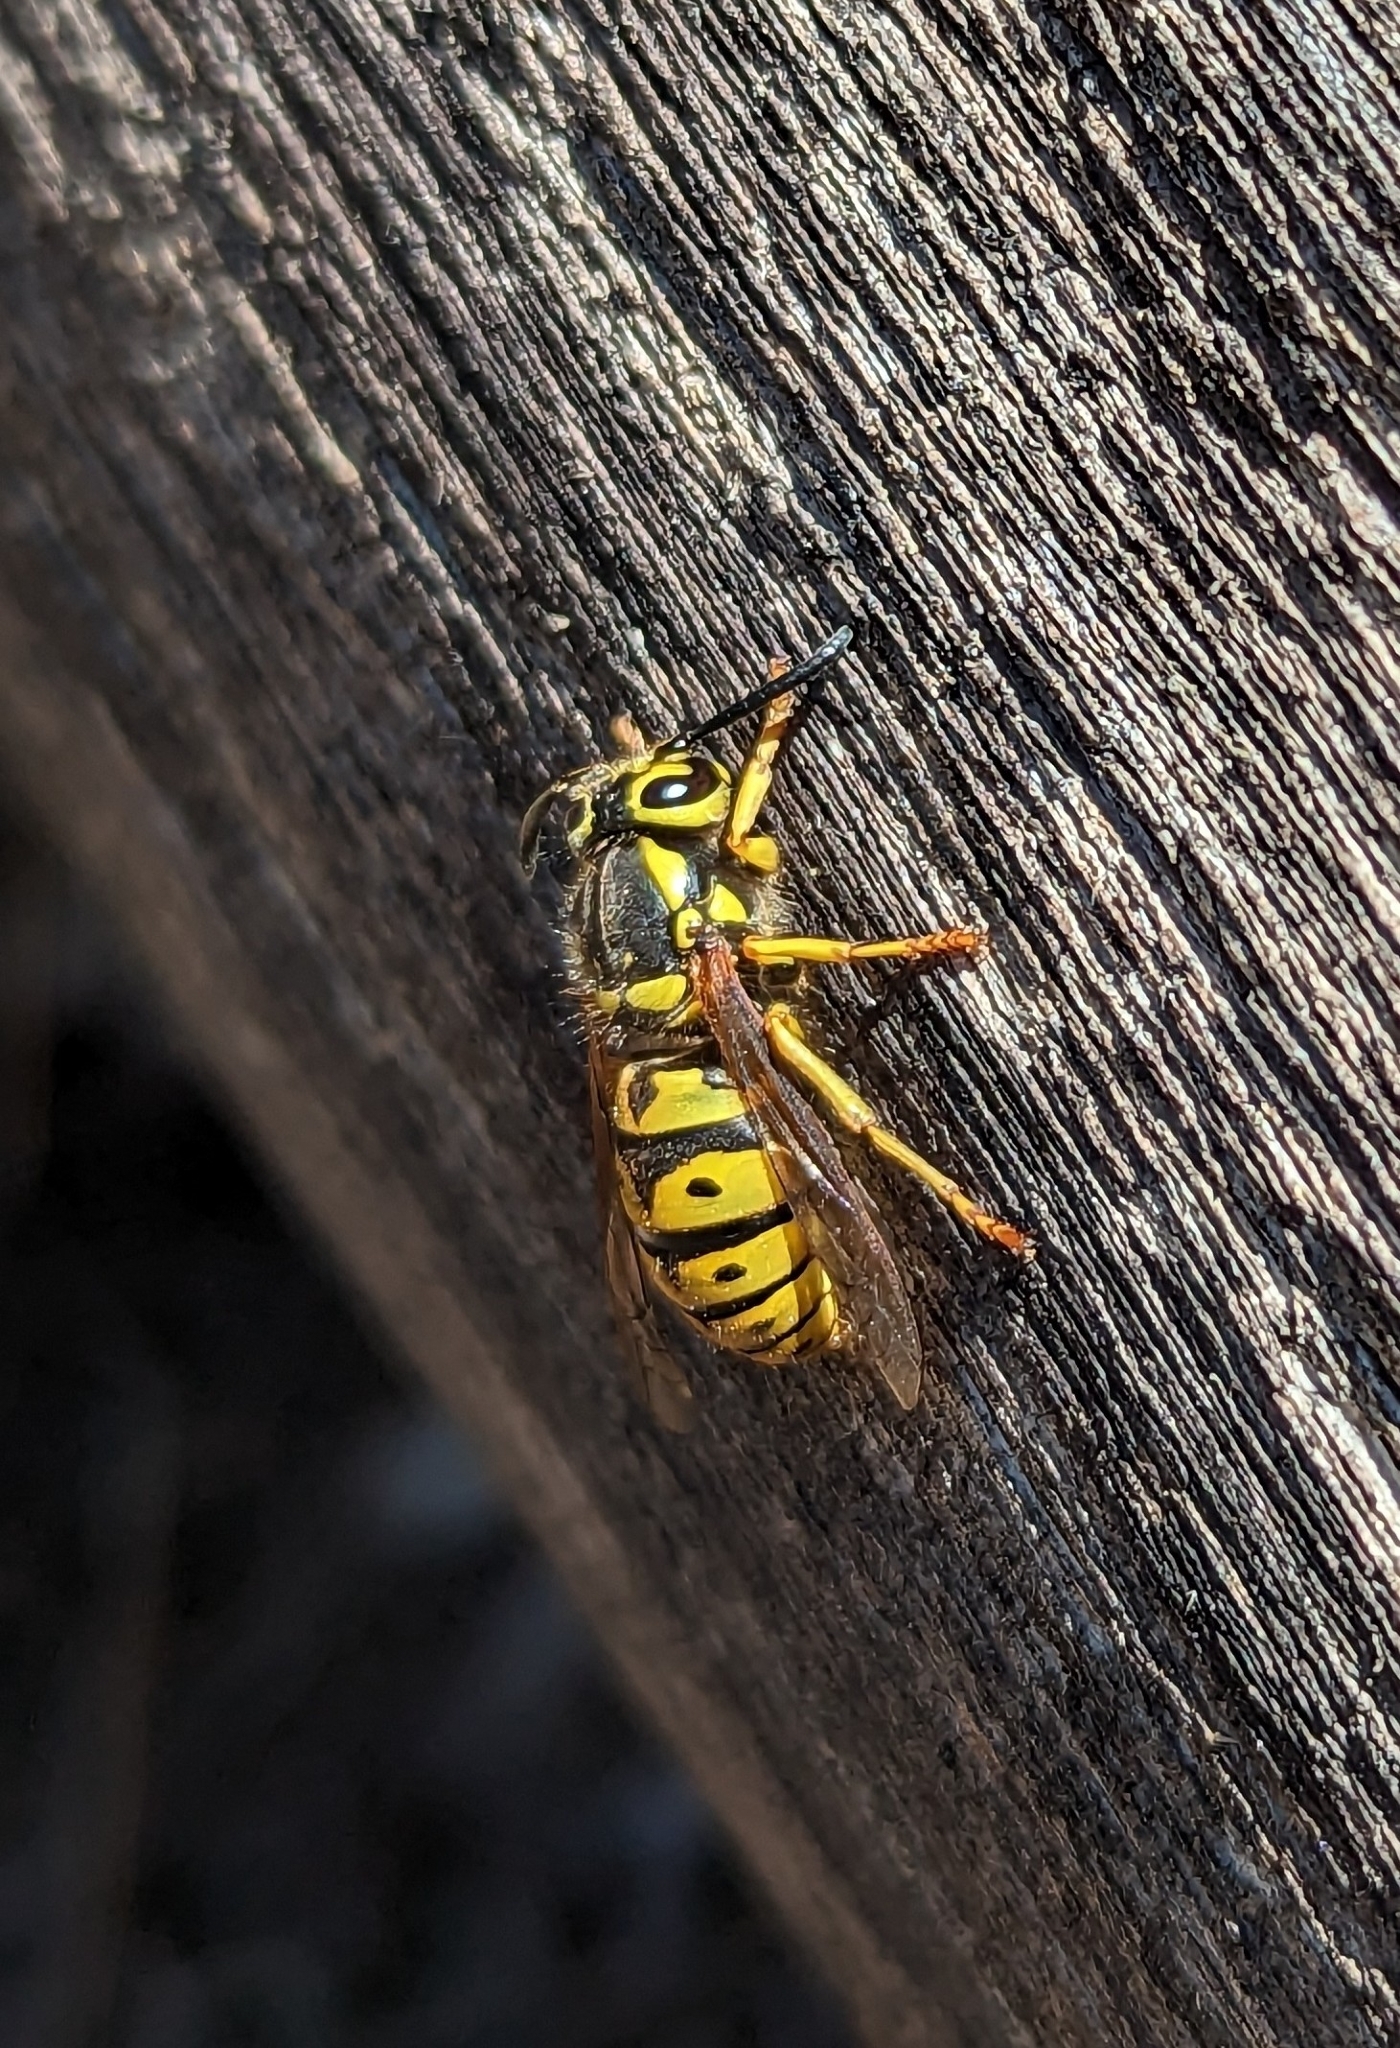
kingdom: Animalia
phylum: Arthropoda
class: Insecta
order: Hymenoptera
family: Vespidae
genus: Vespula
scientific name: Vespula pensylvanica
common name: Western yellowjacket
